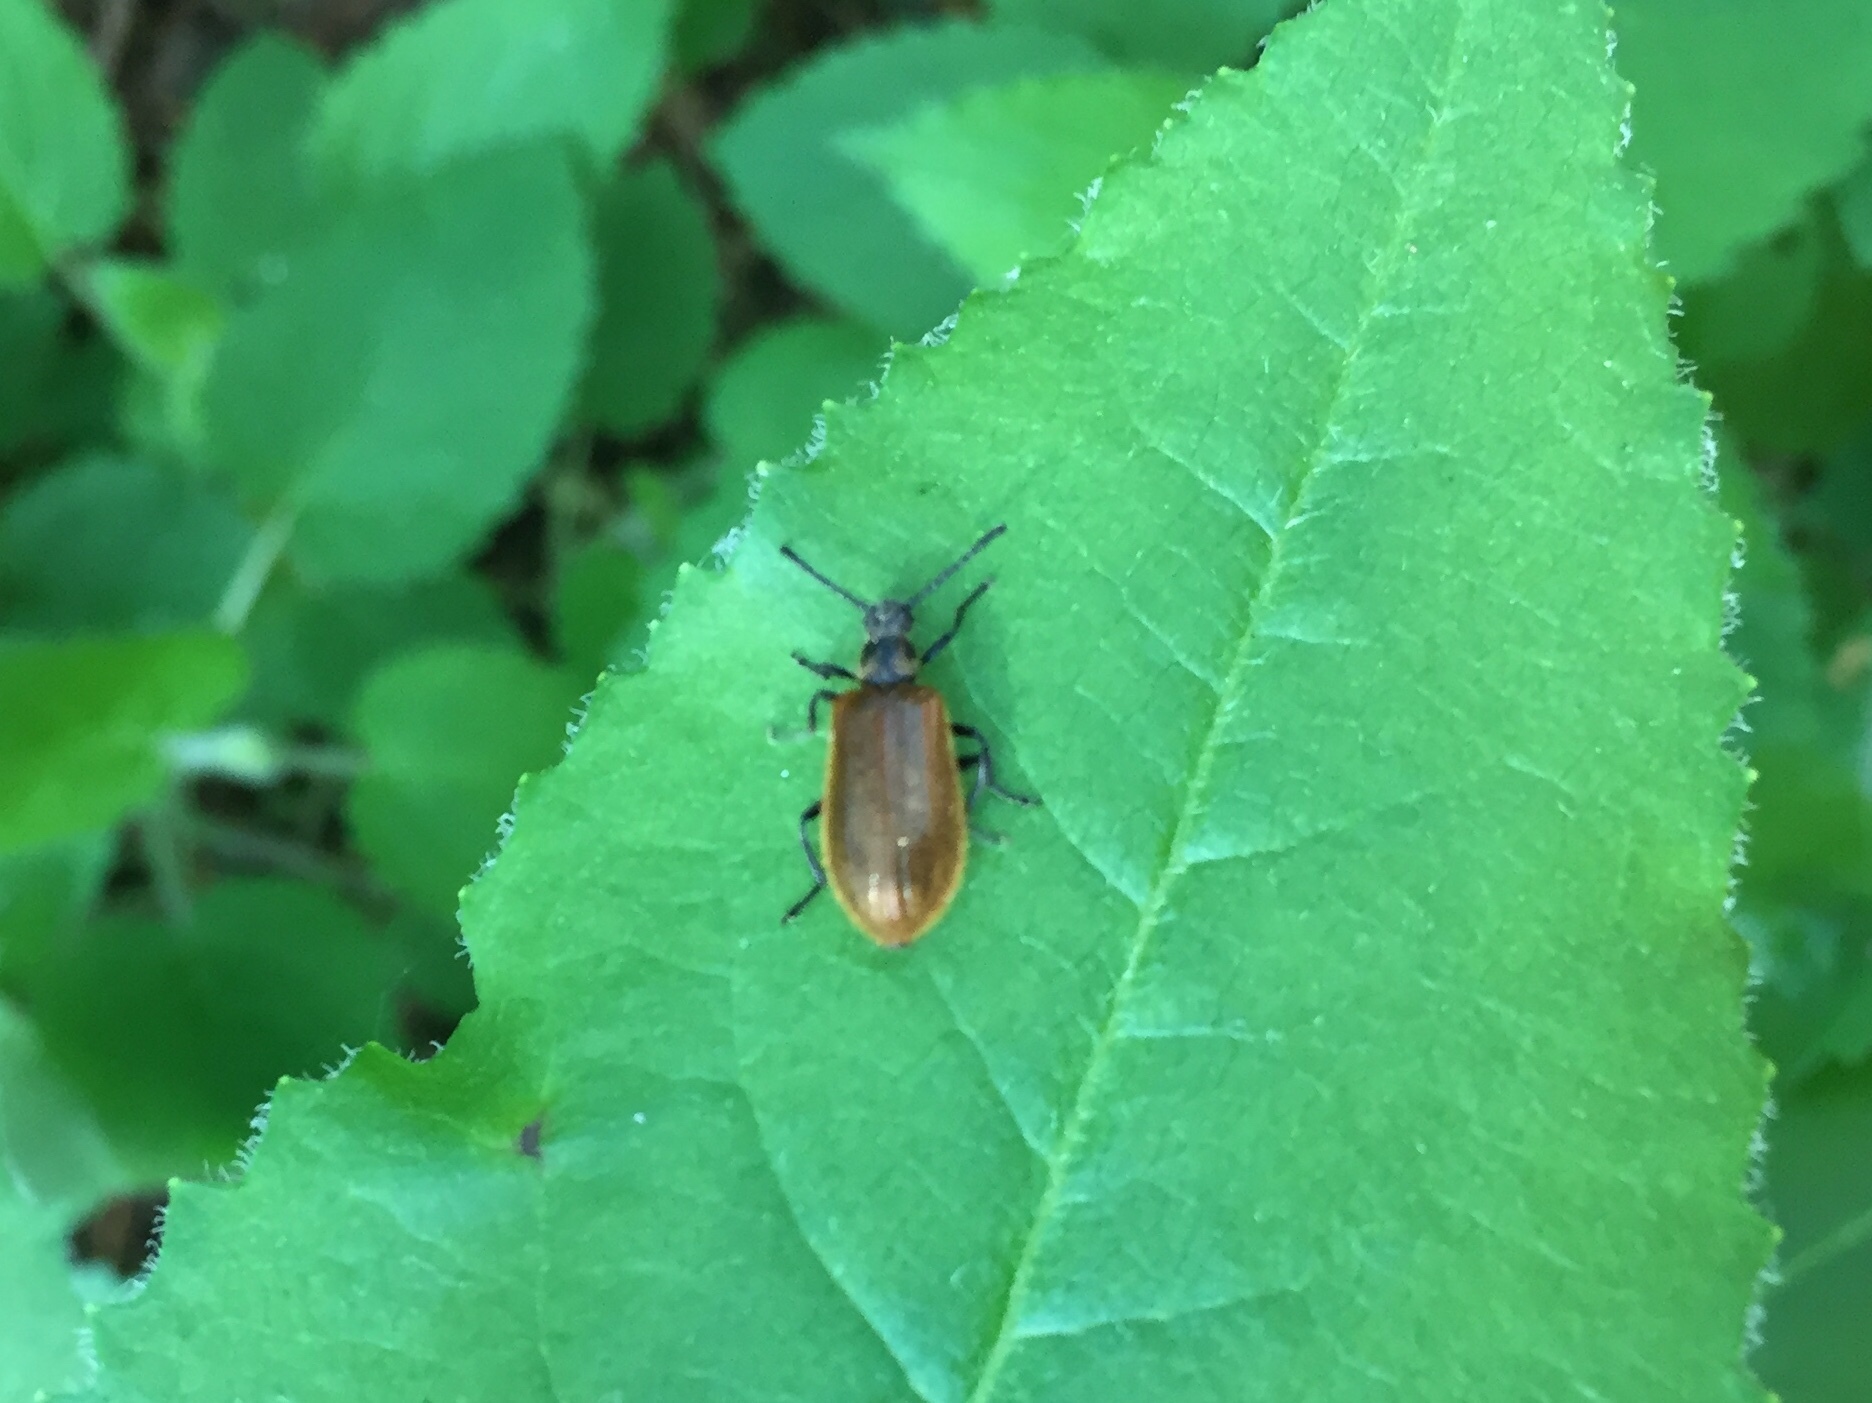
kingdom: Animalia
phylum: Arthropoda
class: Insecta
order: Coleoptera
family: Tenebrionidae
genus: Lagria
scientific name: Lagria hirta
